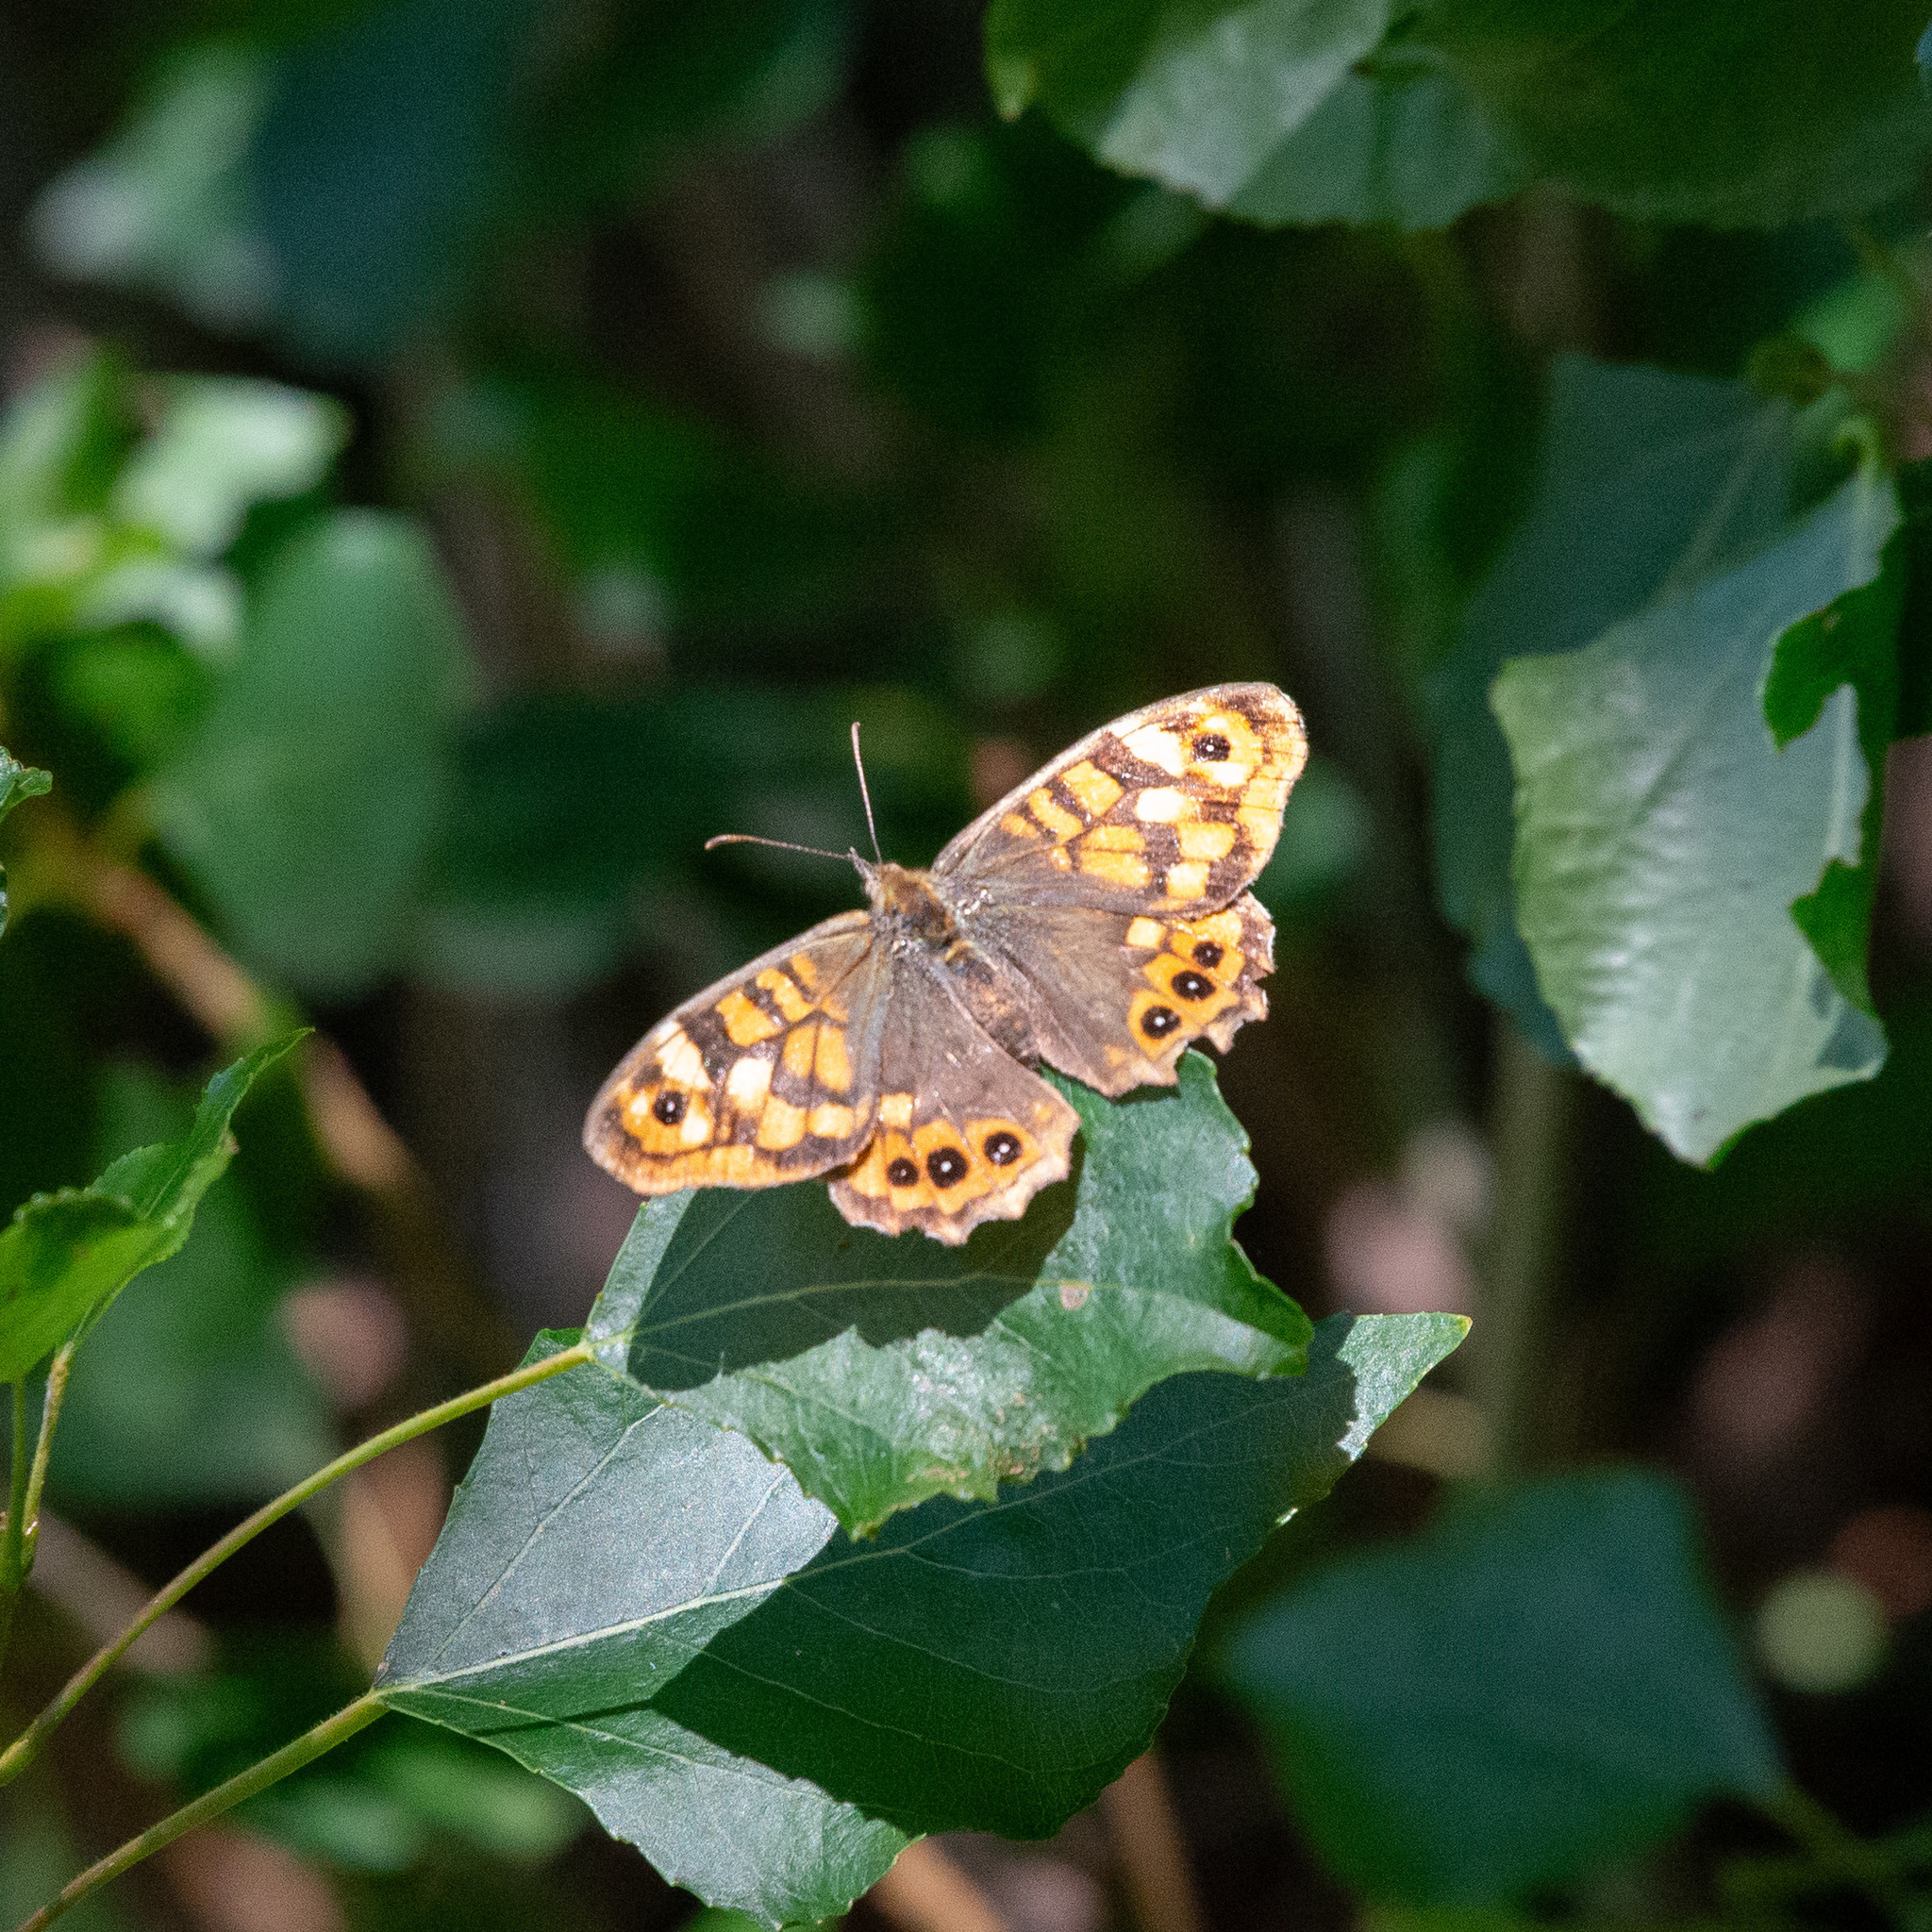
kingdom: Animalia
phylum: Arthropoda
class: Insecta
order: Lepidoptera
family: Nymphalidae
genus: Pararge
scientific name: Pararge aegeria
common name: Speckled wood
